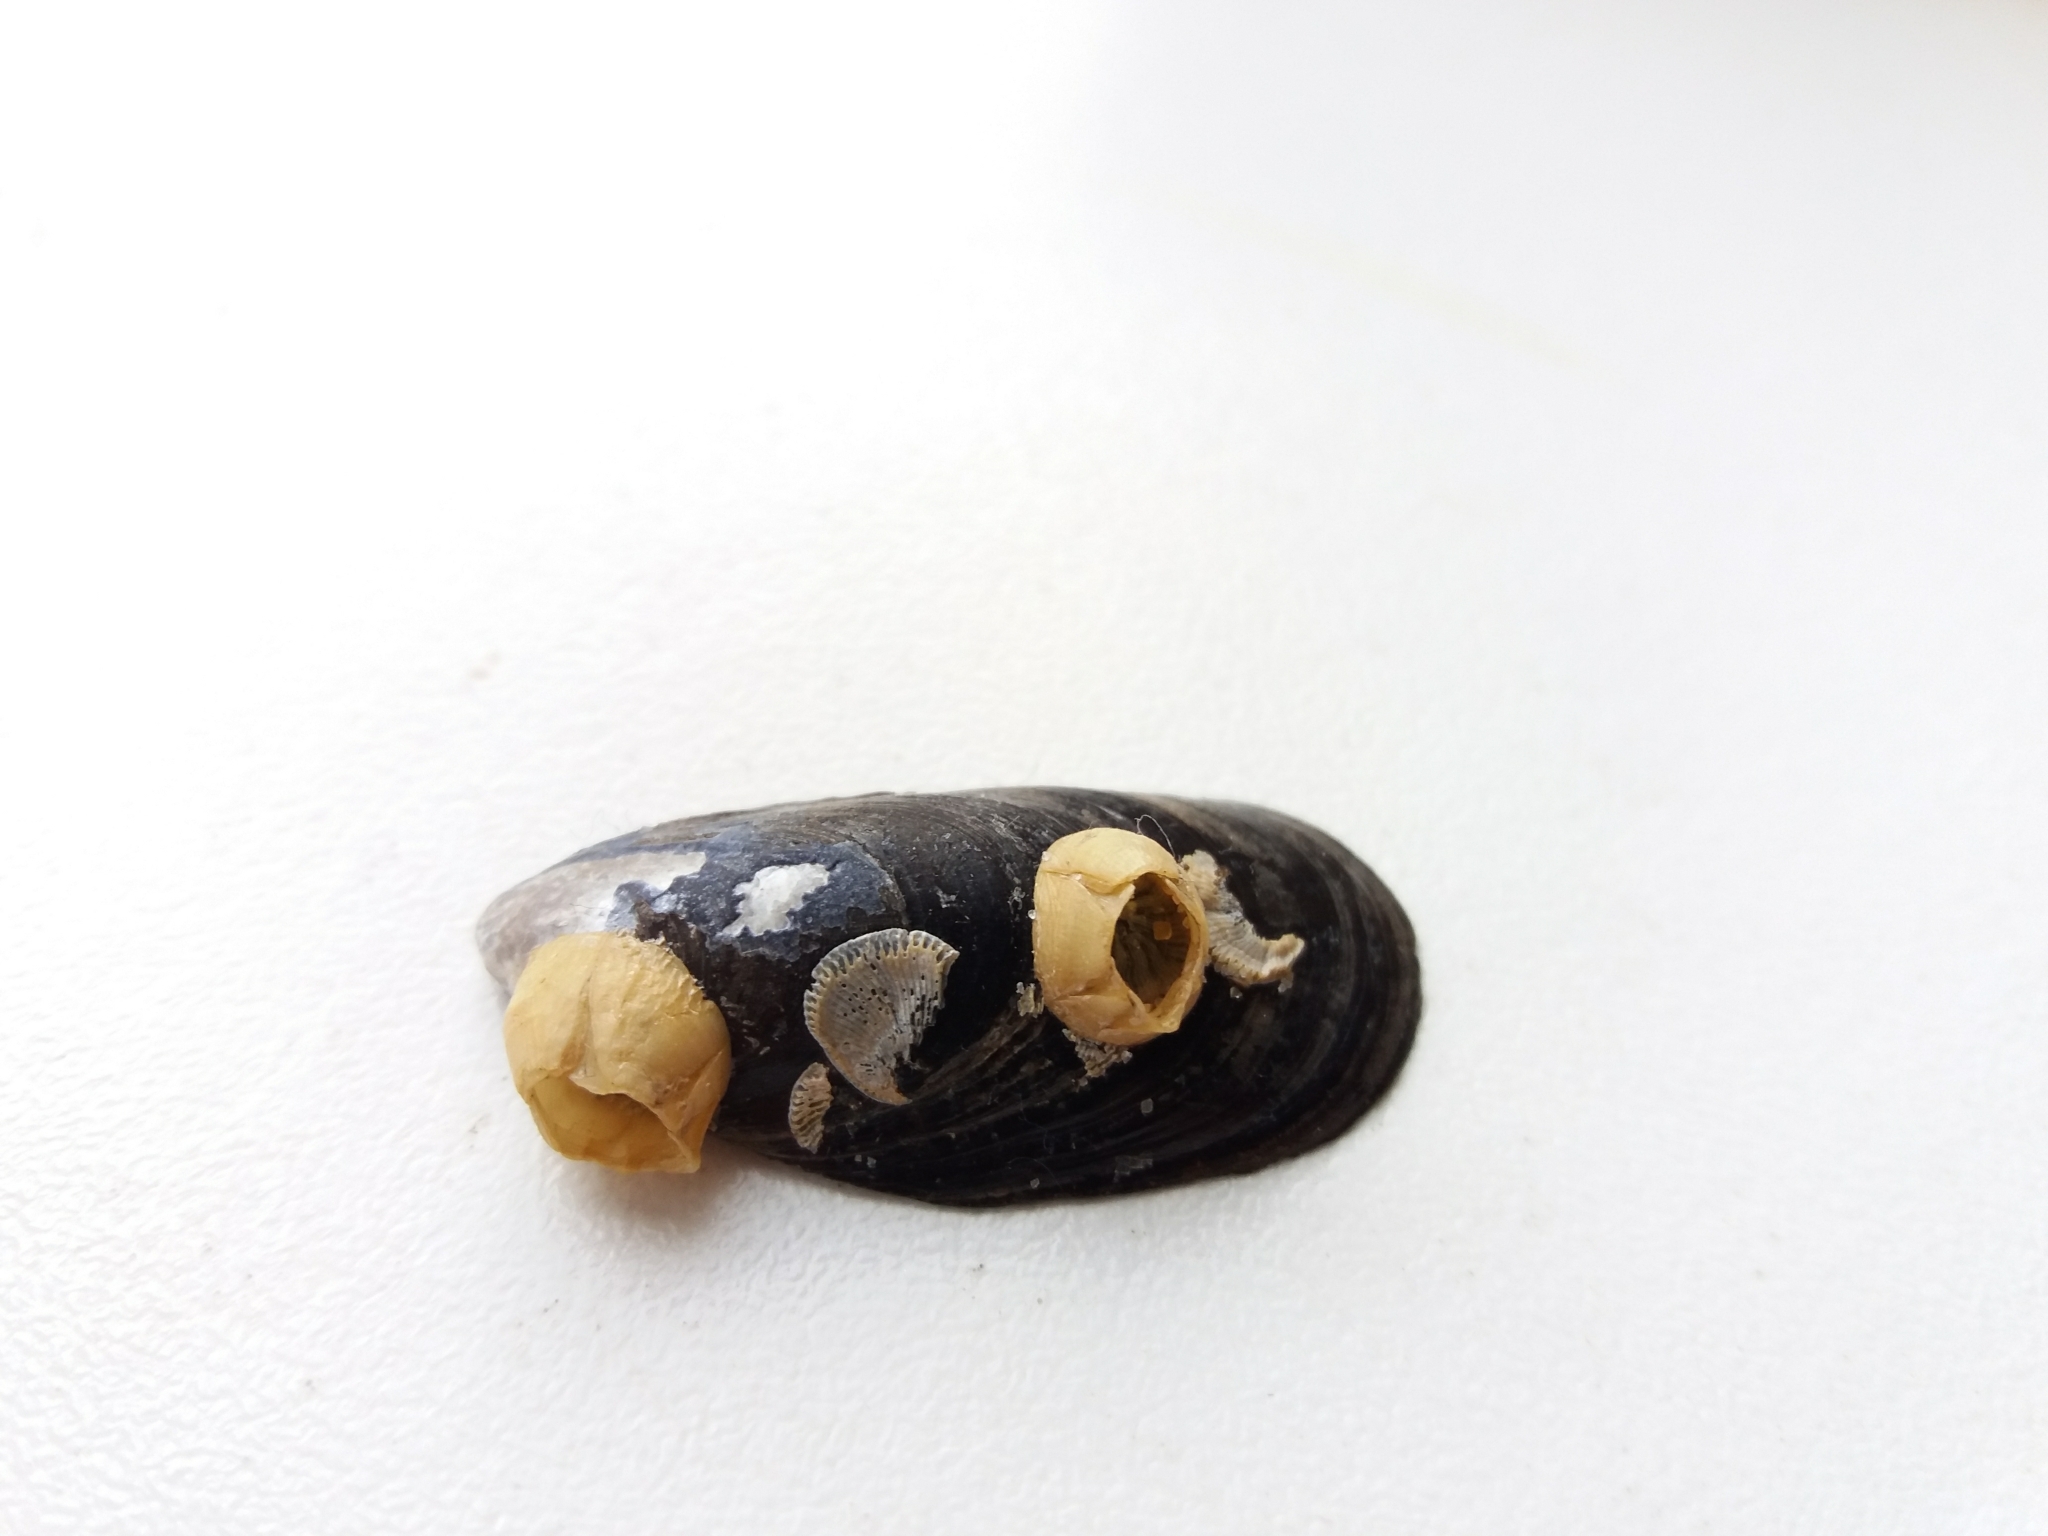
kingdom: Animalia
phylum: Arthropoda
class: Maxillopoda
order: Sessilia
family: Balanidae
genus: Amphibalanus
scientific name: Amphibalanus improvisus
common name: Bay barnacle
